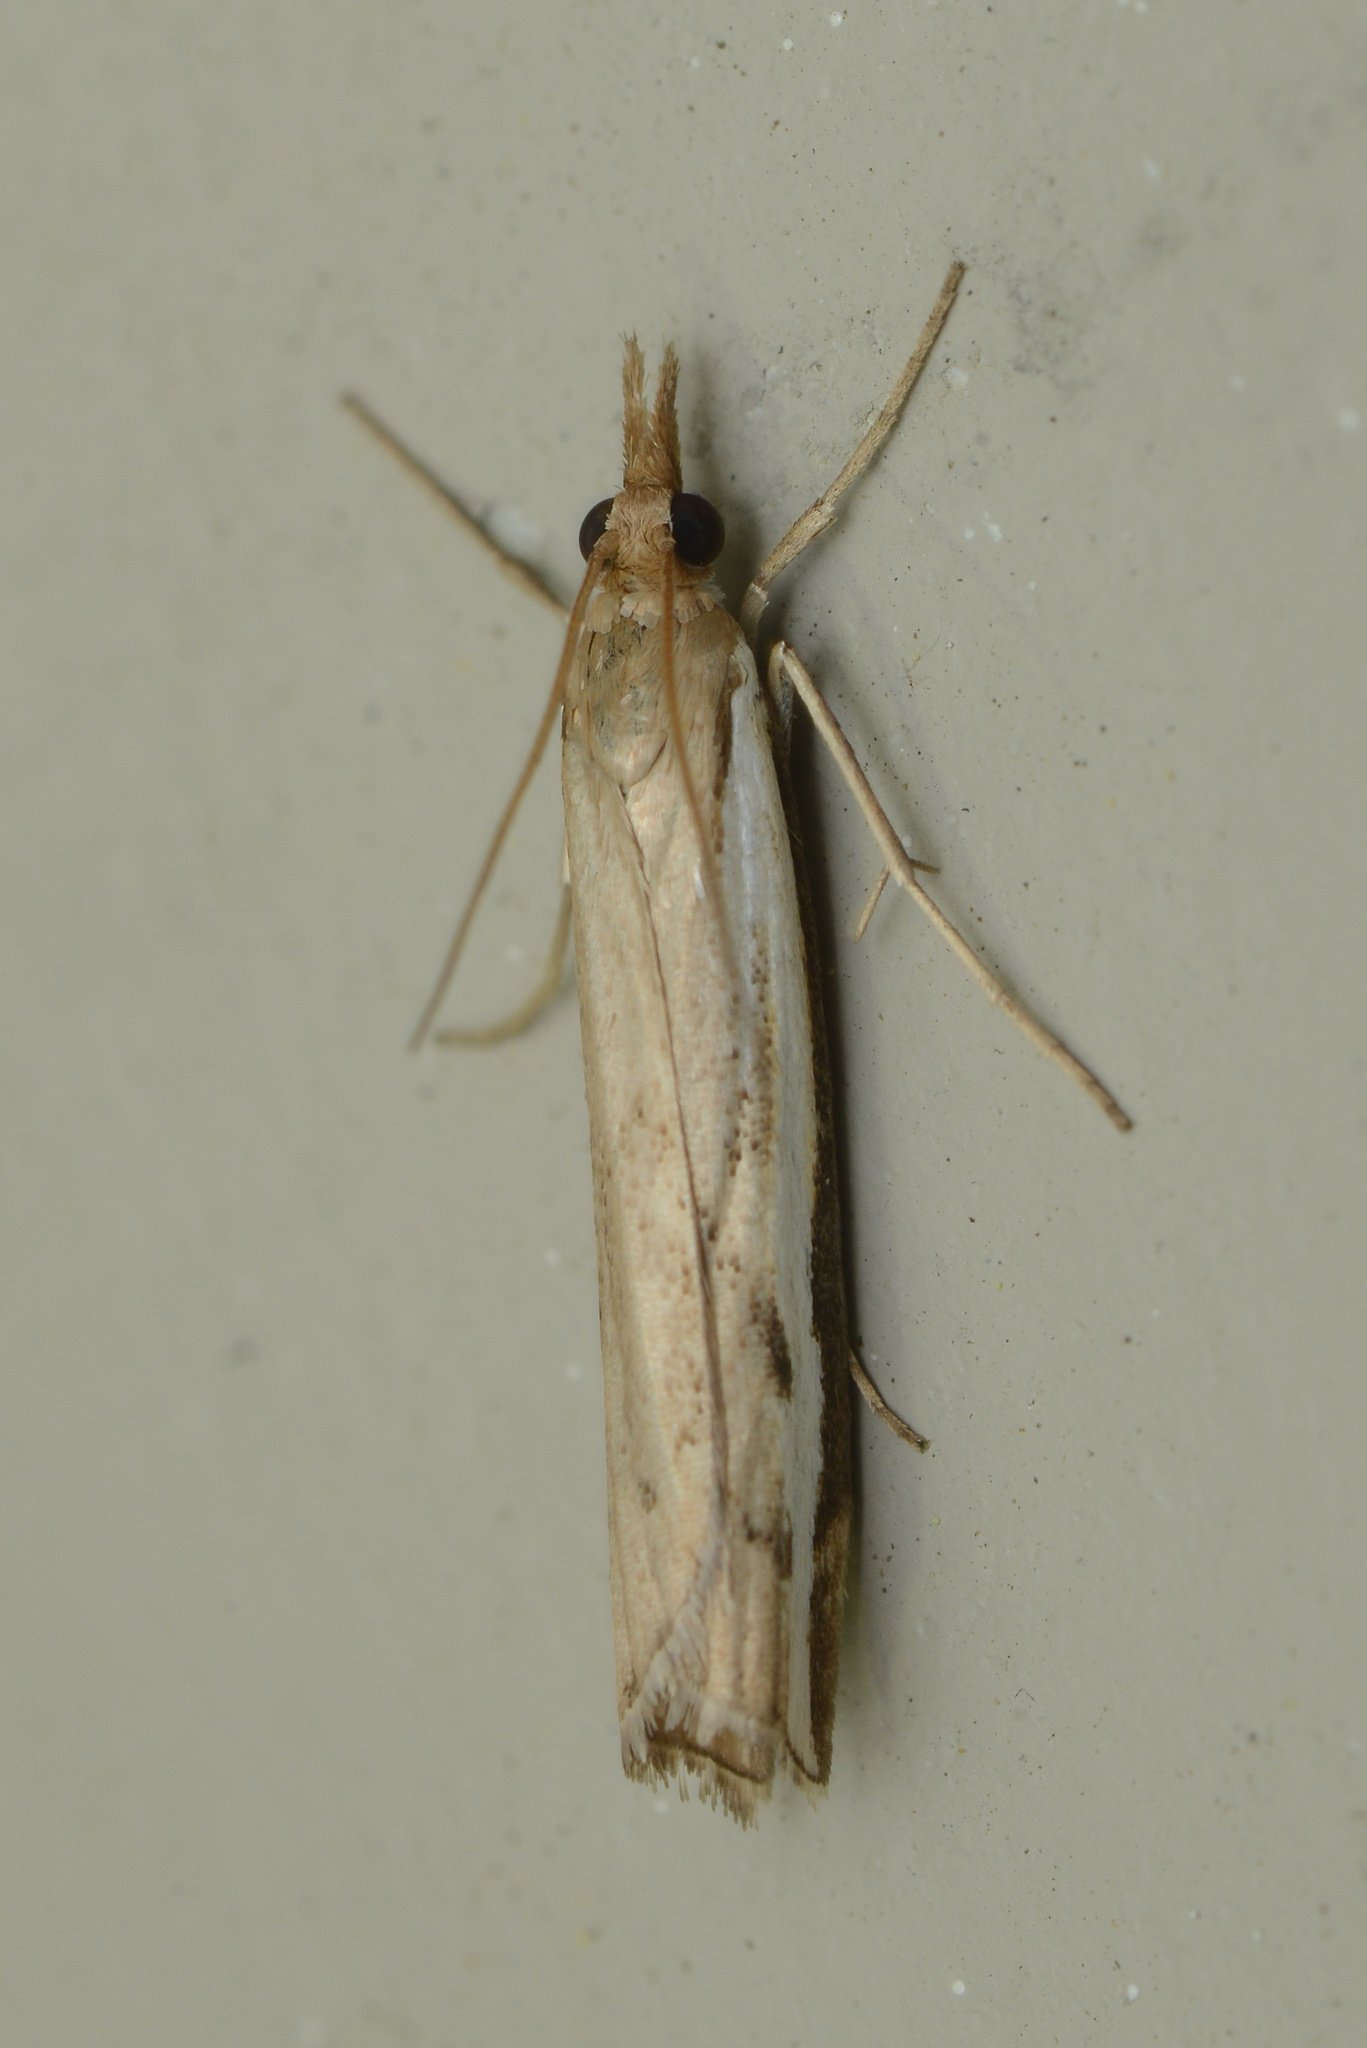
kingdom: Animalia
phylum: Arthropoda
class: Insecta
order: Lepidoptera
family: Crambidae
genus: Orocrambus
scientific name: Orocrambus flexuosellus
